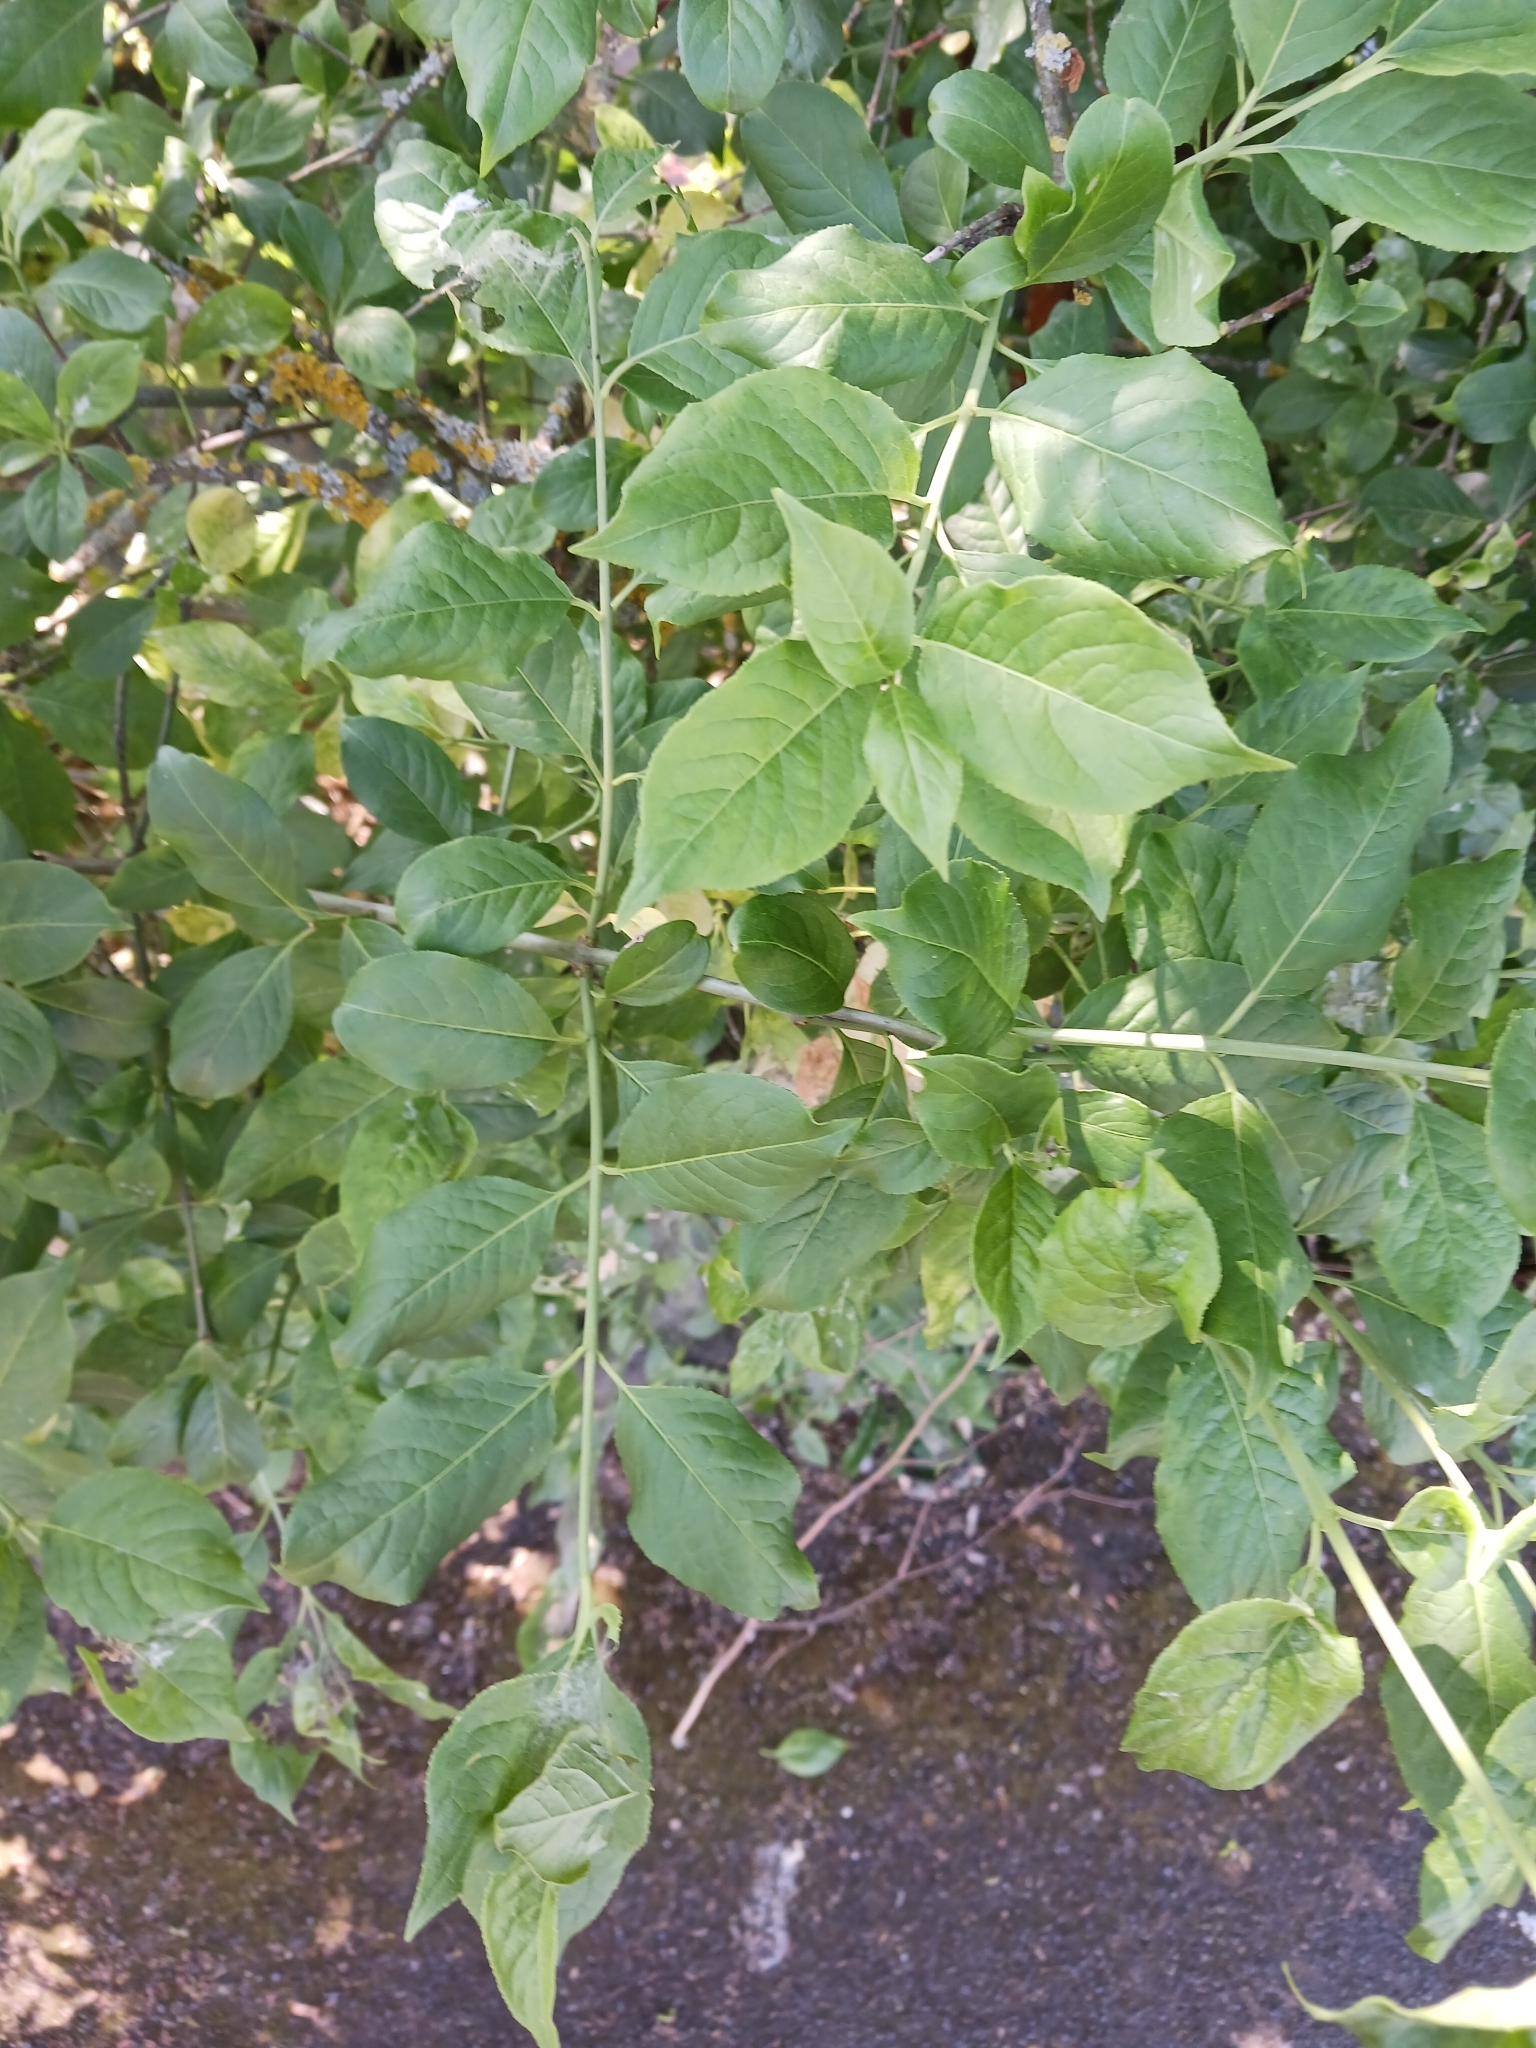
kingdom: Fungi
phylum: Ascomycota
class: Leotiomycetes
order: Helotiales
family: Erysiphaceae
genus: Erysiphe
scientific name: Erysiphe euonymi
